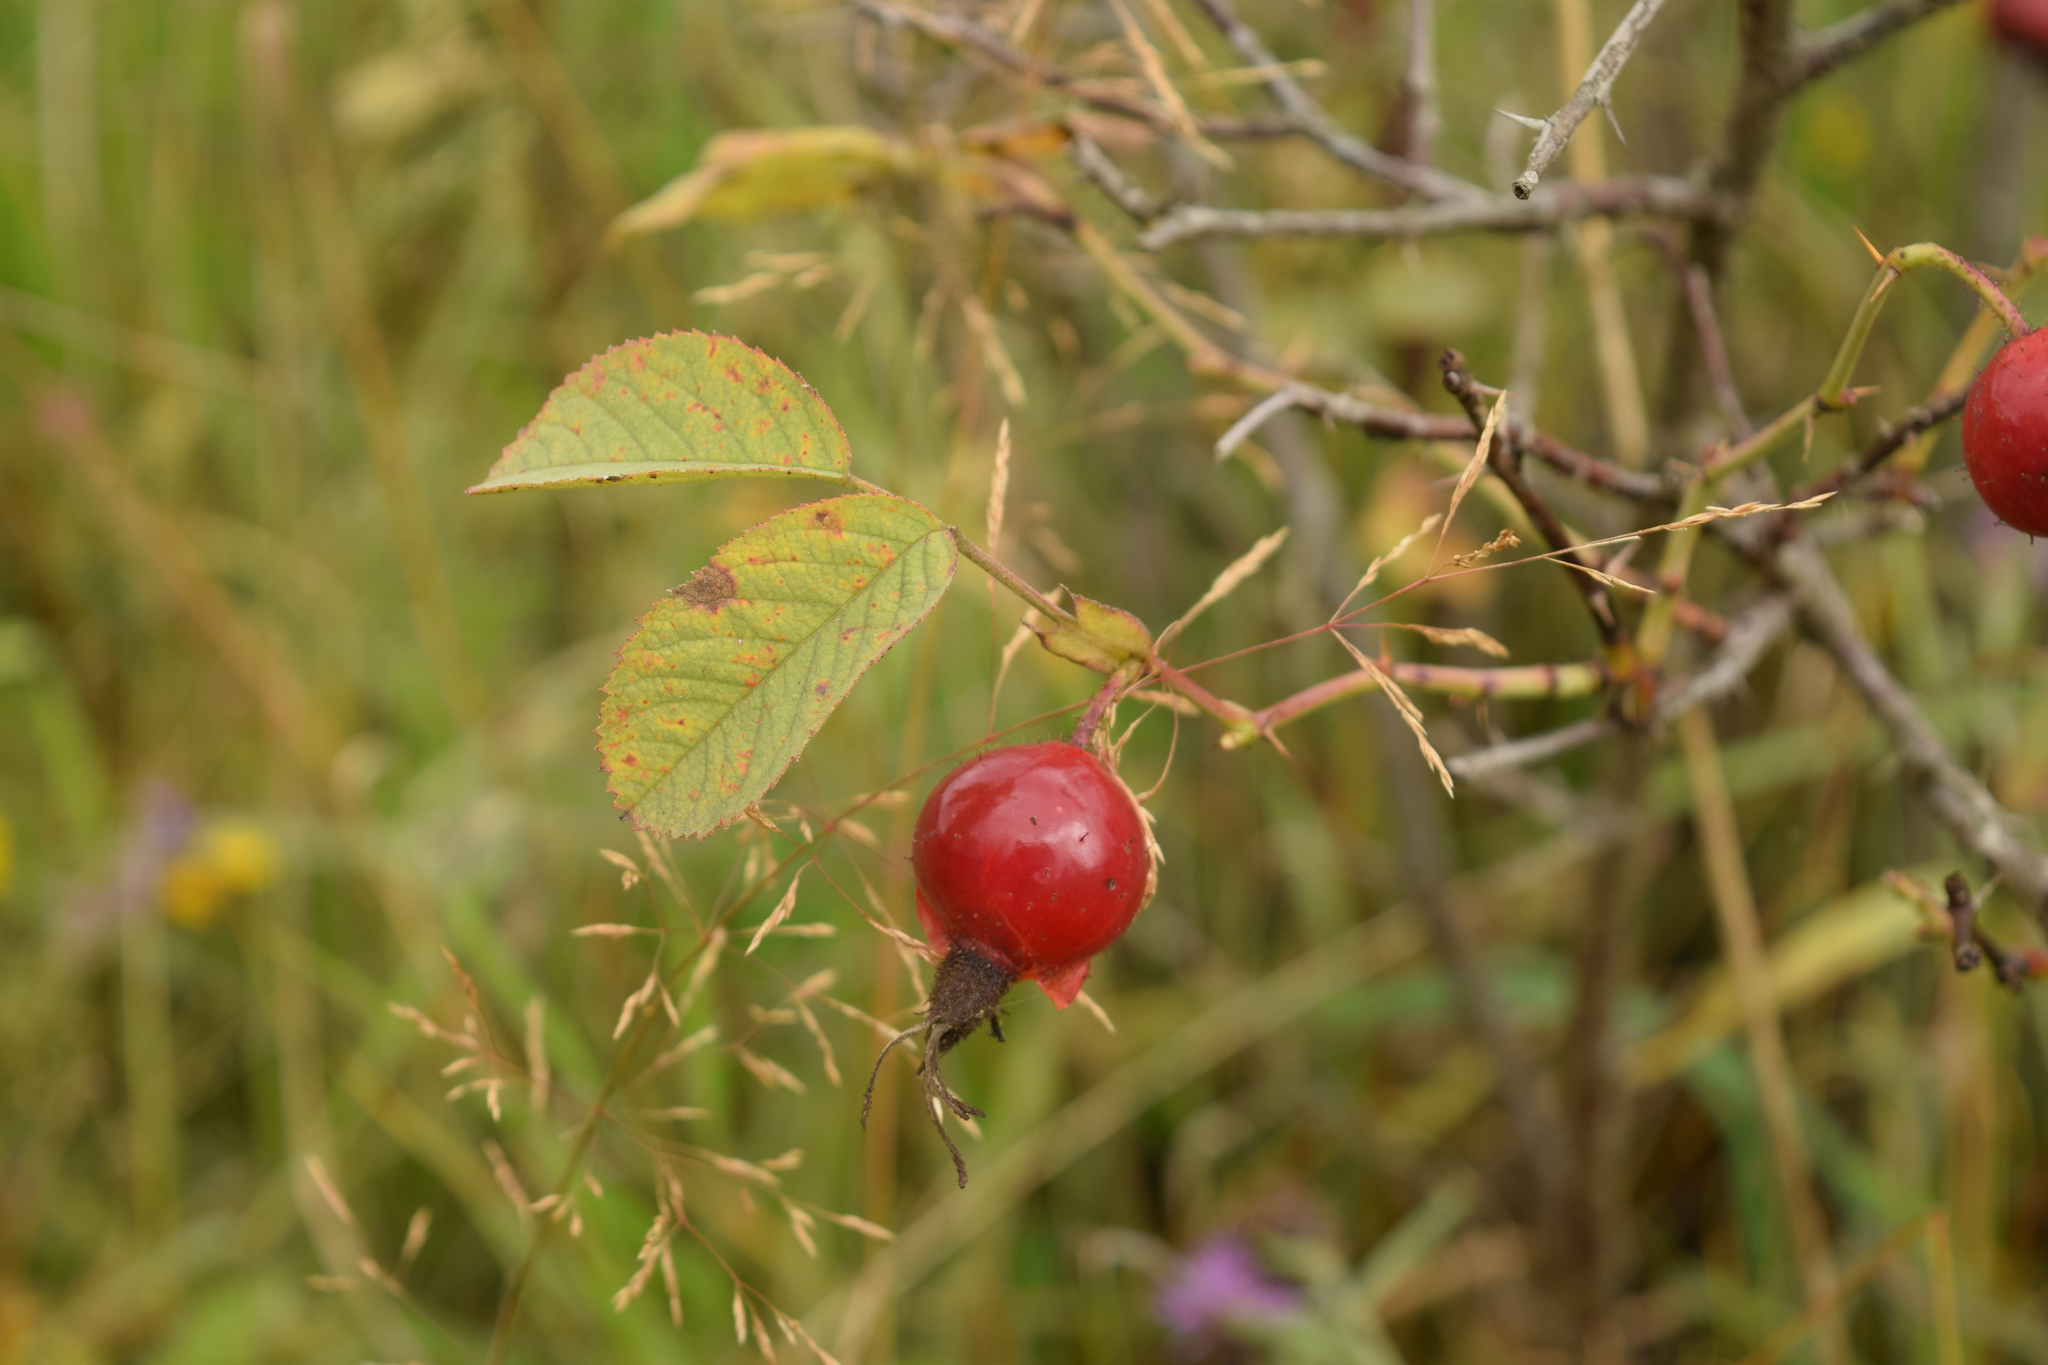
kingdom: Plantae
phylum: Tracheophyta
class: Magnoliopsida
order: Rosales
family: Rosaceae
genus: Rosa
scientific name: Rosa villosa
